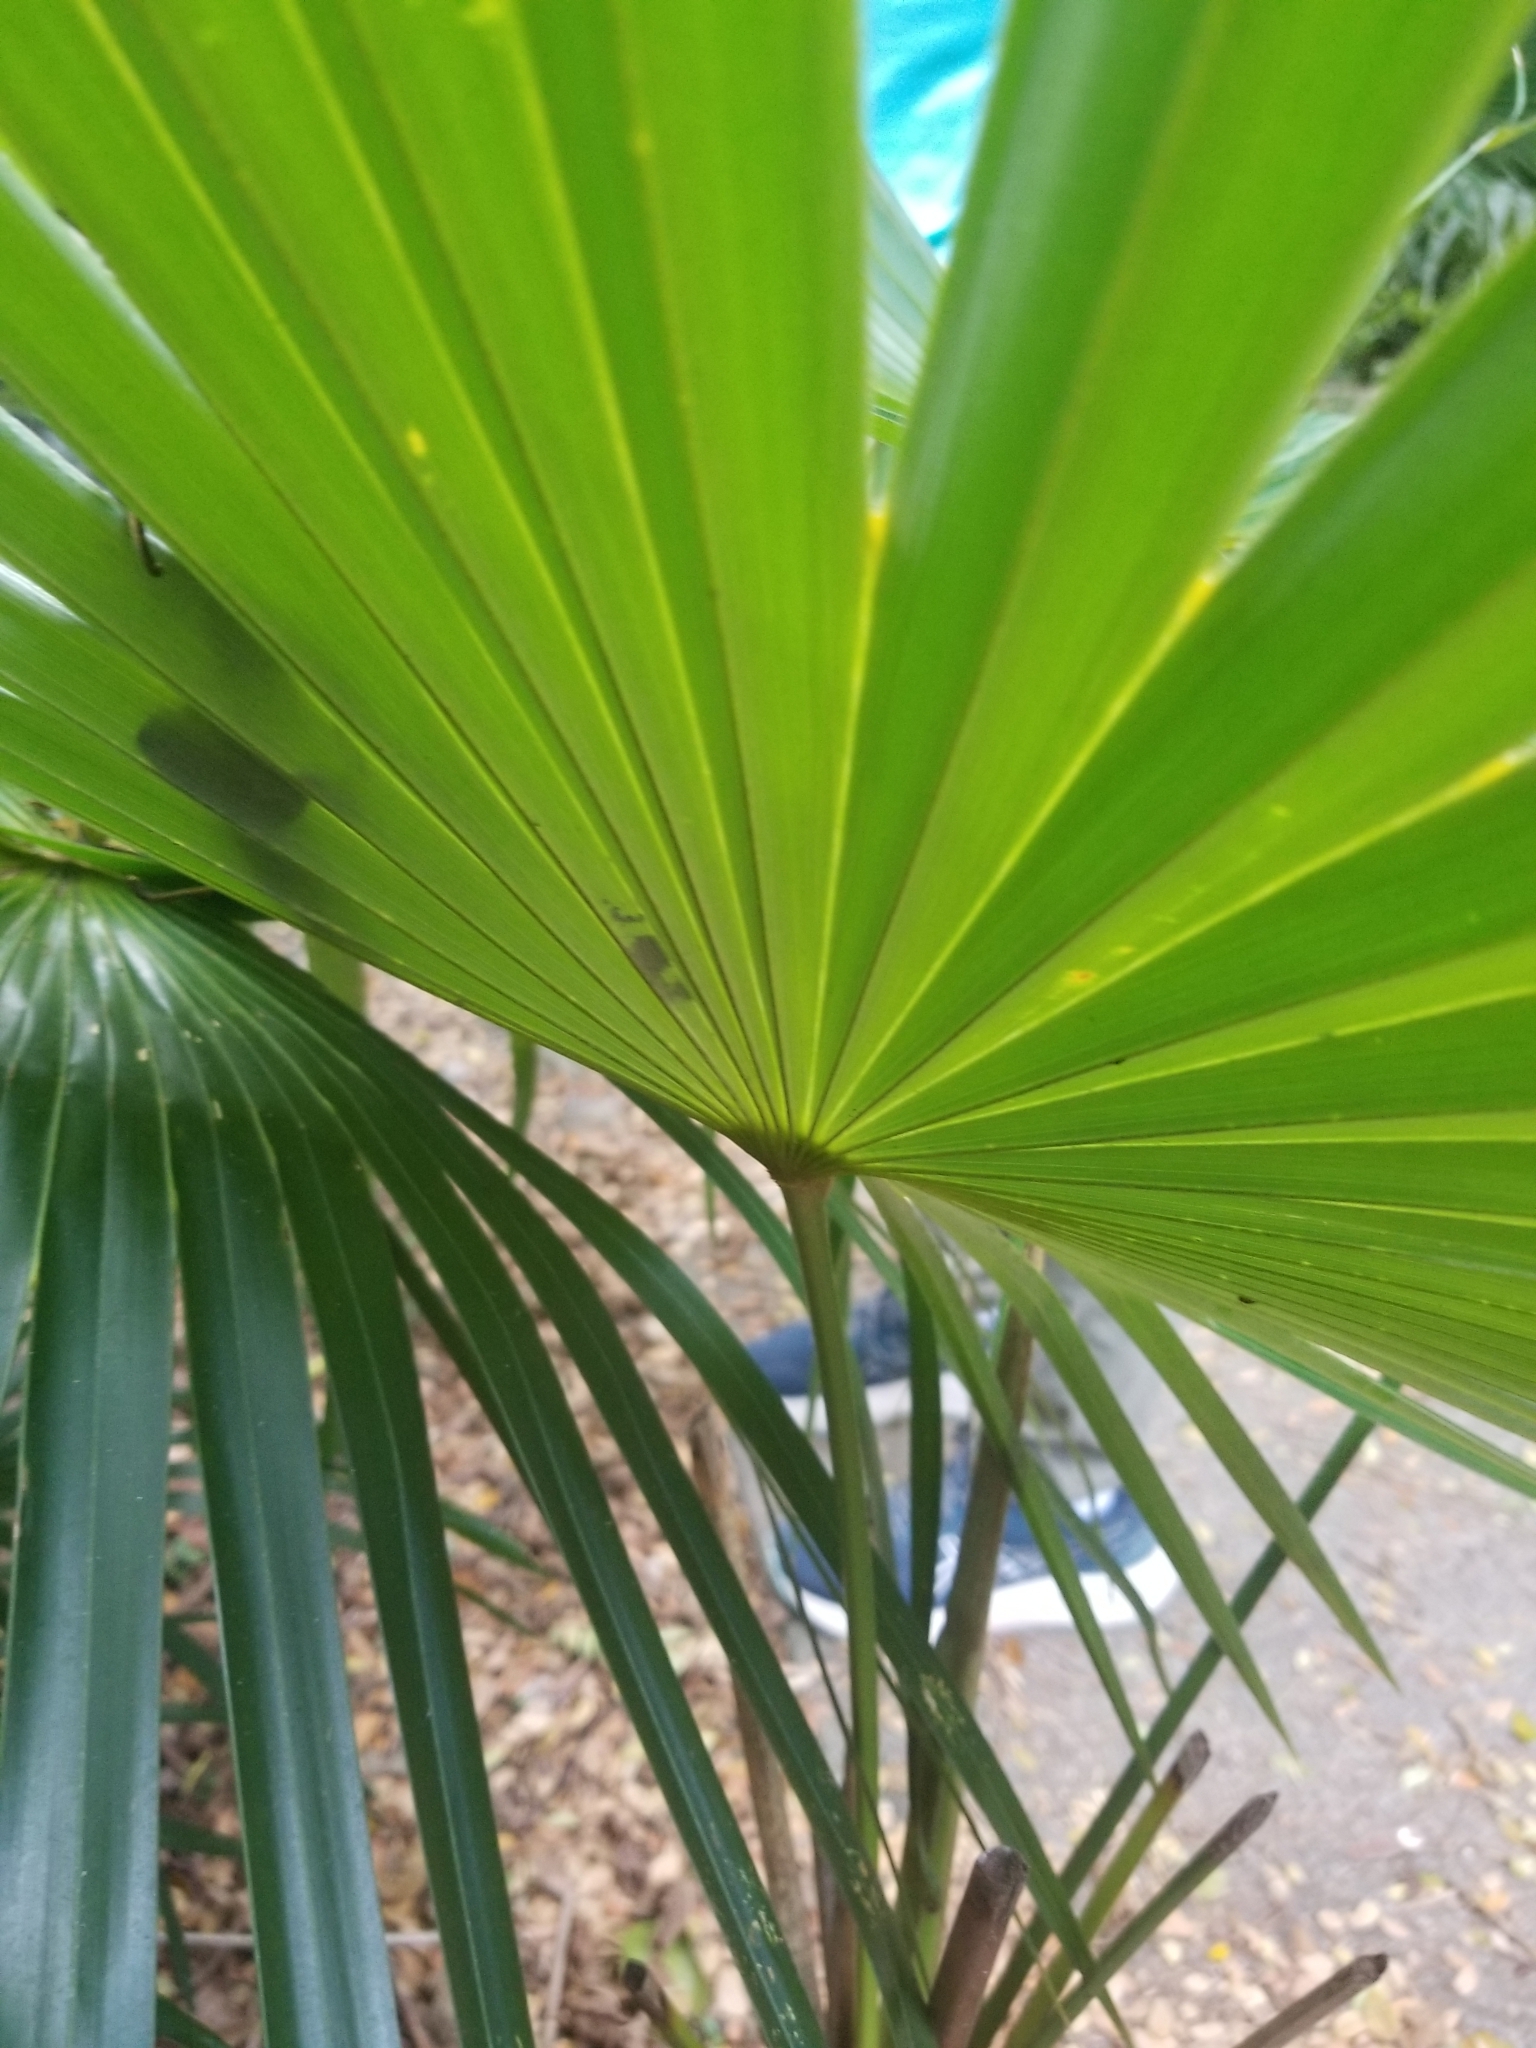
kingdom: Plantae
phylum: Tracheophyta
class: Liliopsida
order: Arecales
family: Arecaceae
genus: Coccothrinax
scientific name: Coccothrinax alta
